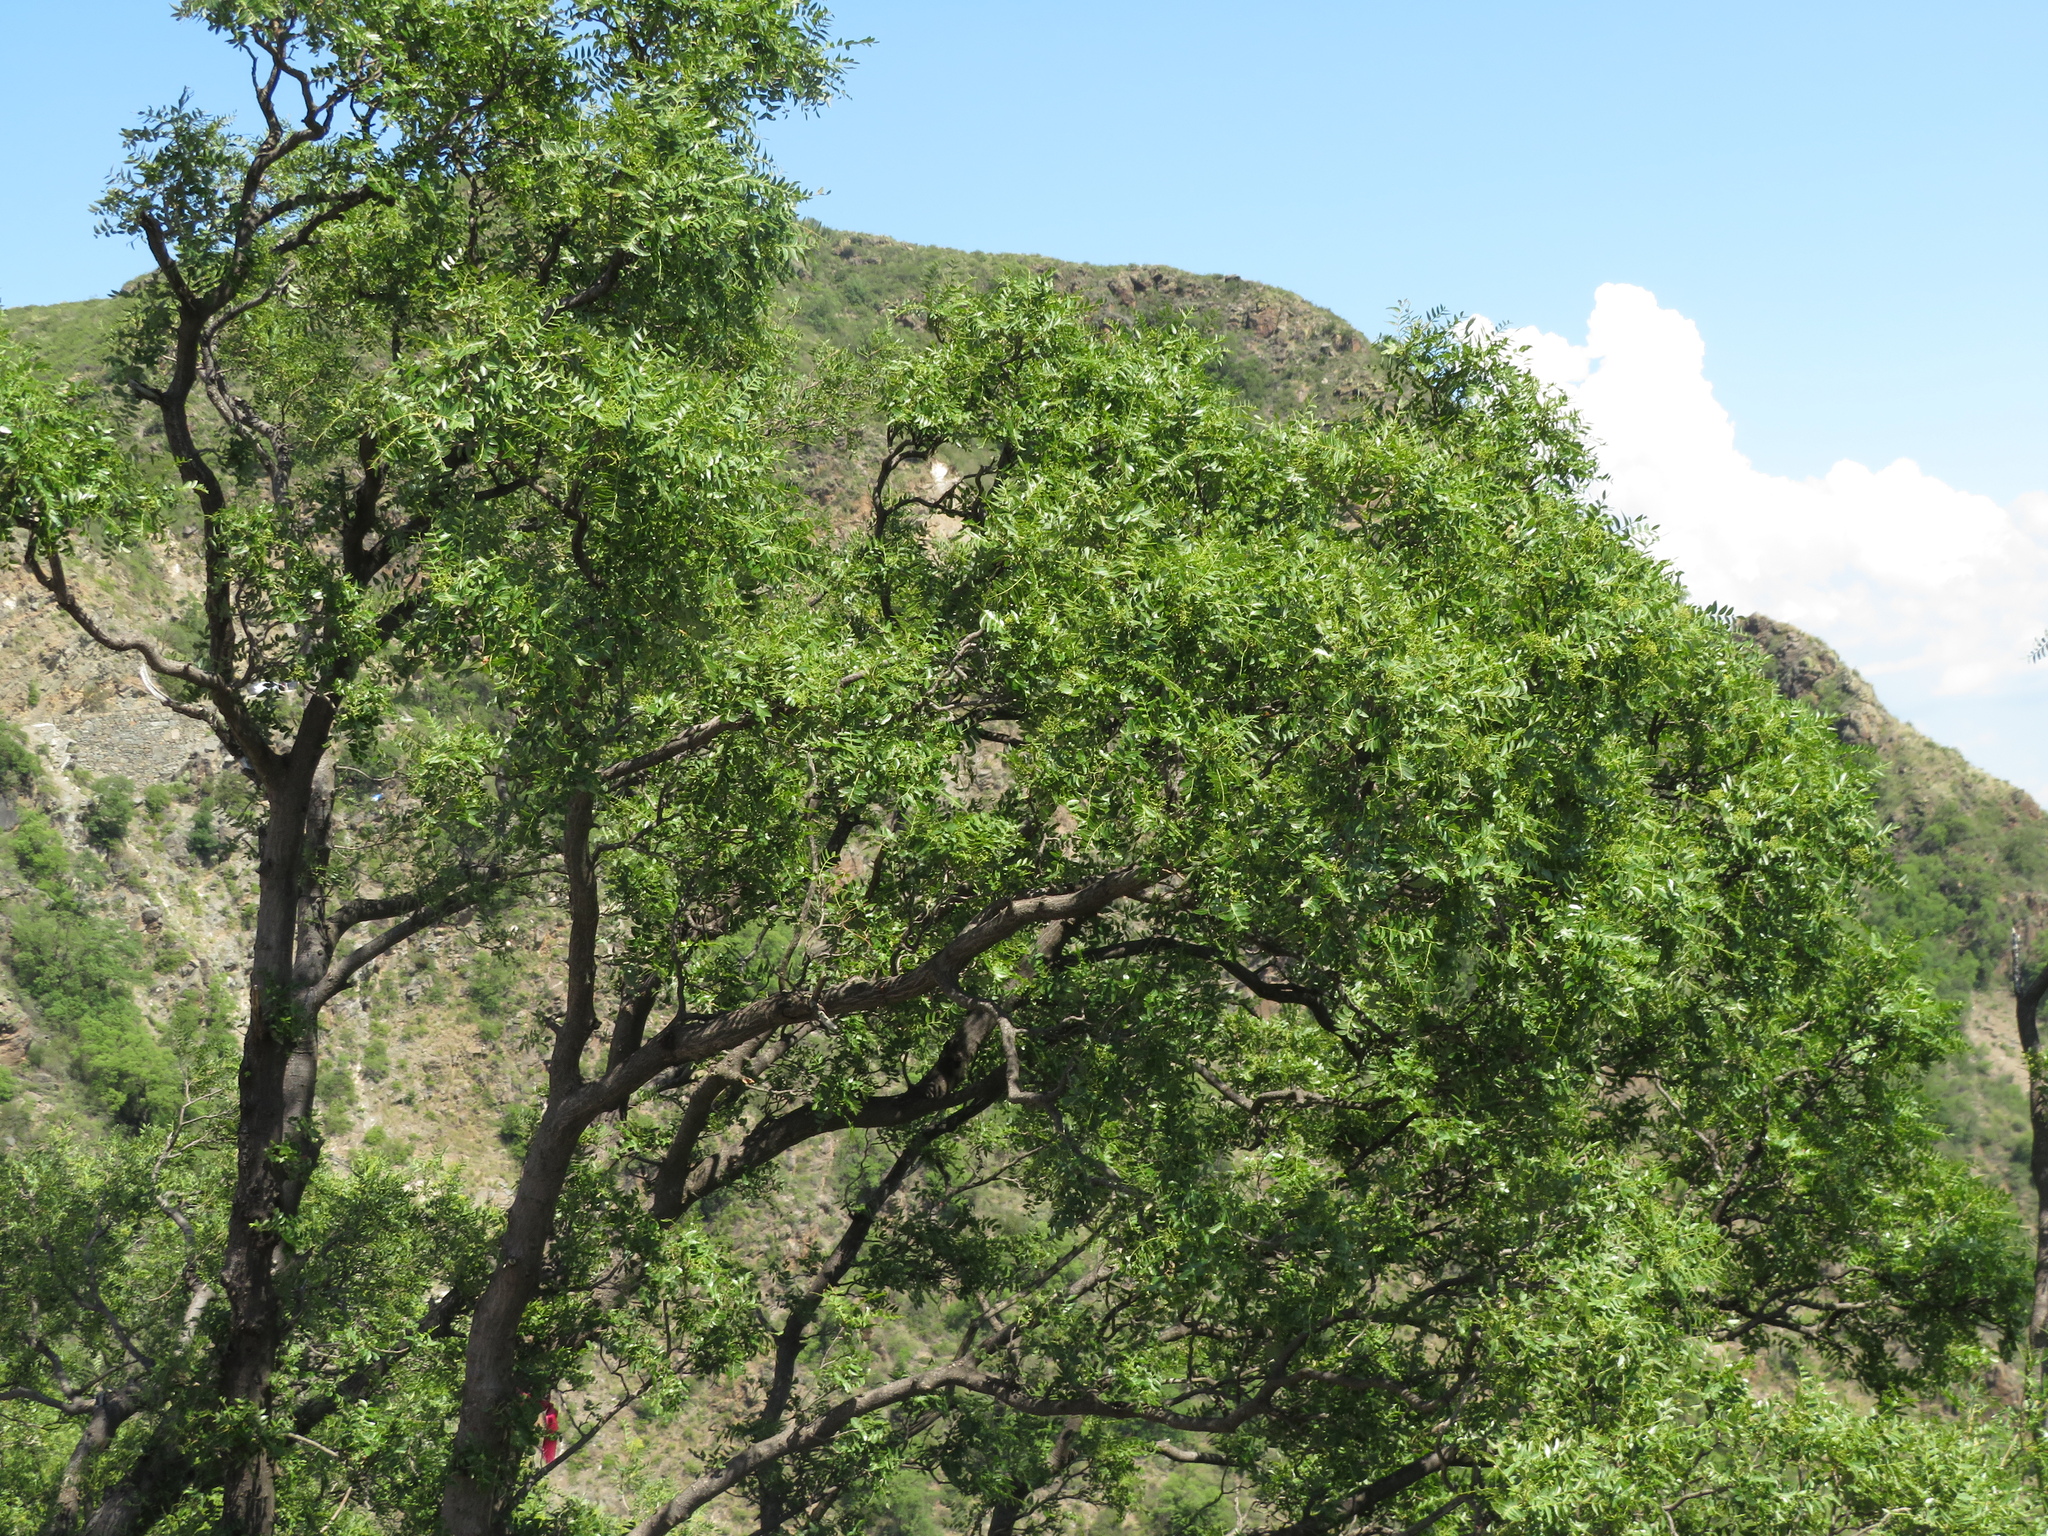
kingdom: Plantae
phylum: Tracheophyta
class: Magnoliopsida
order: Sapindales
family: Anacardiaceae
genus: Schinopsis
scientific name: Schinopsis lorentzii
